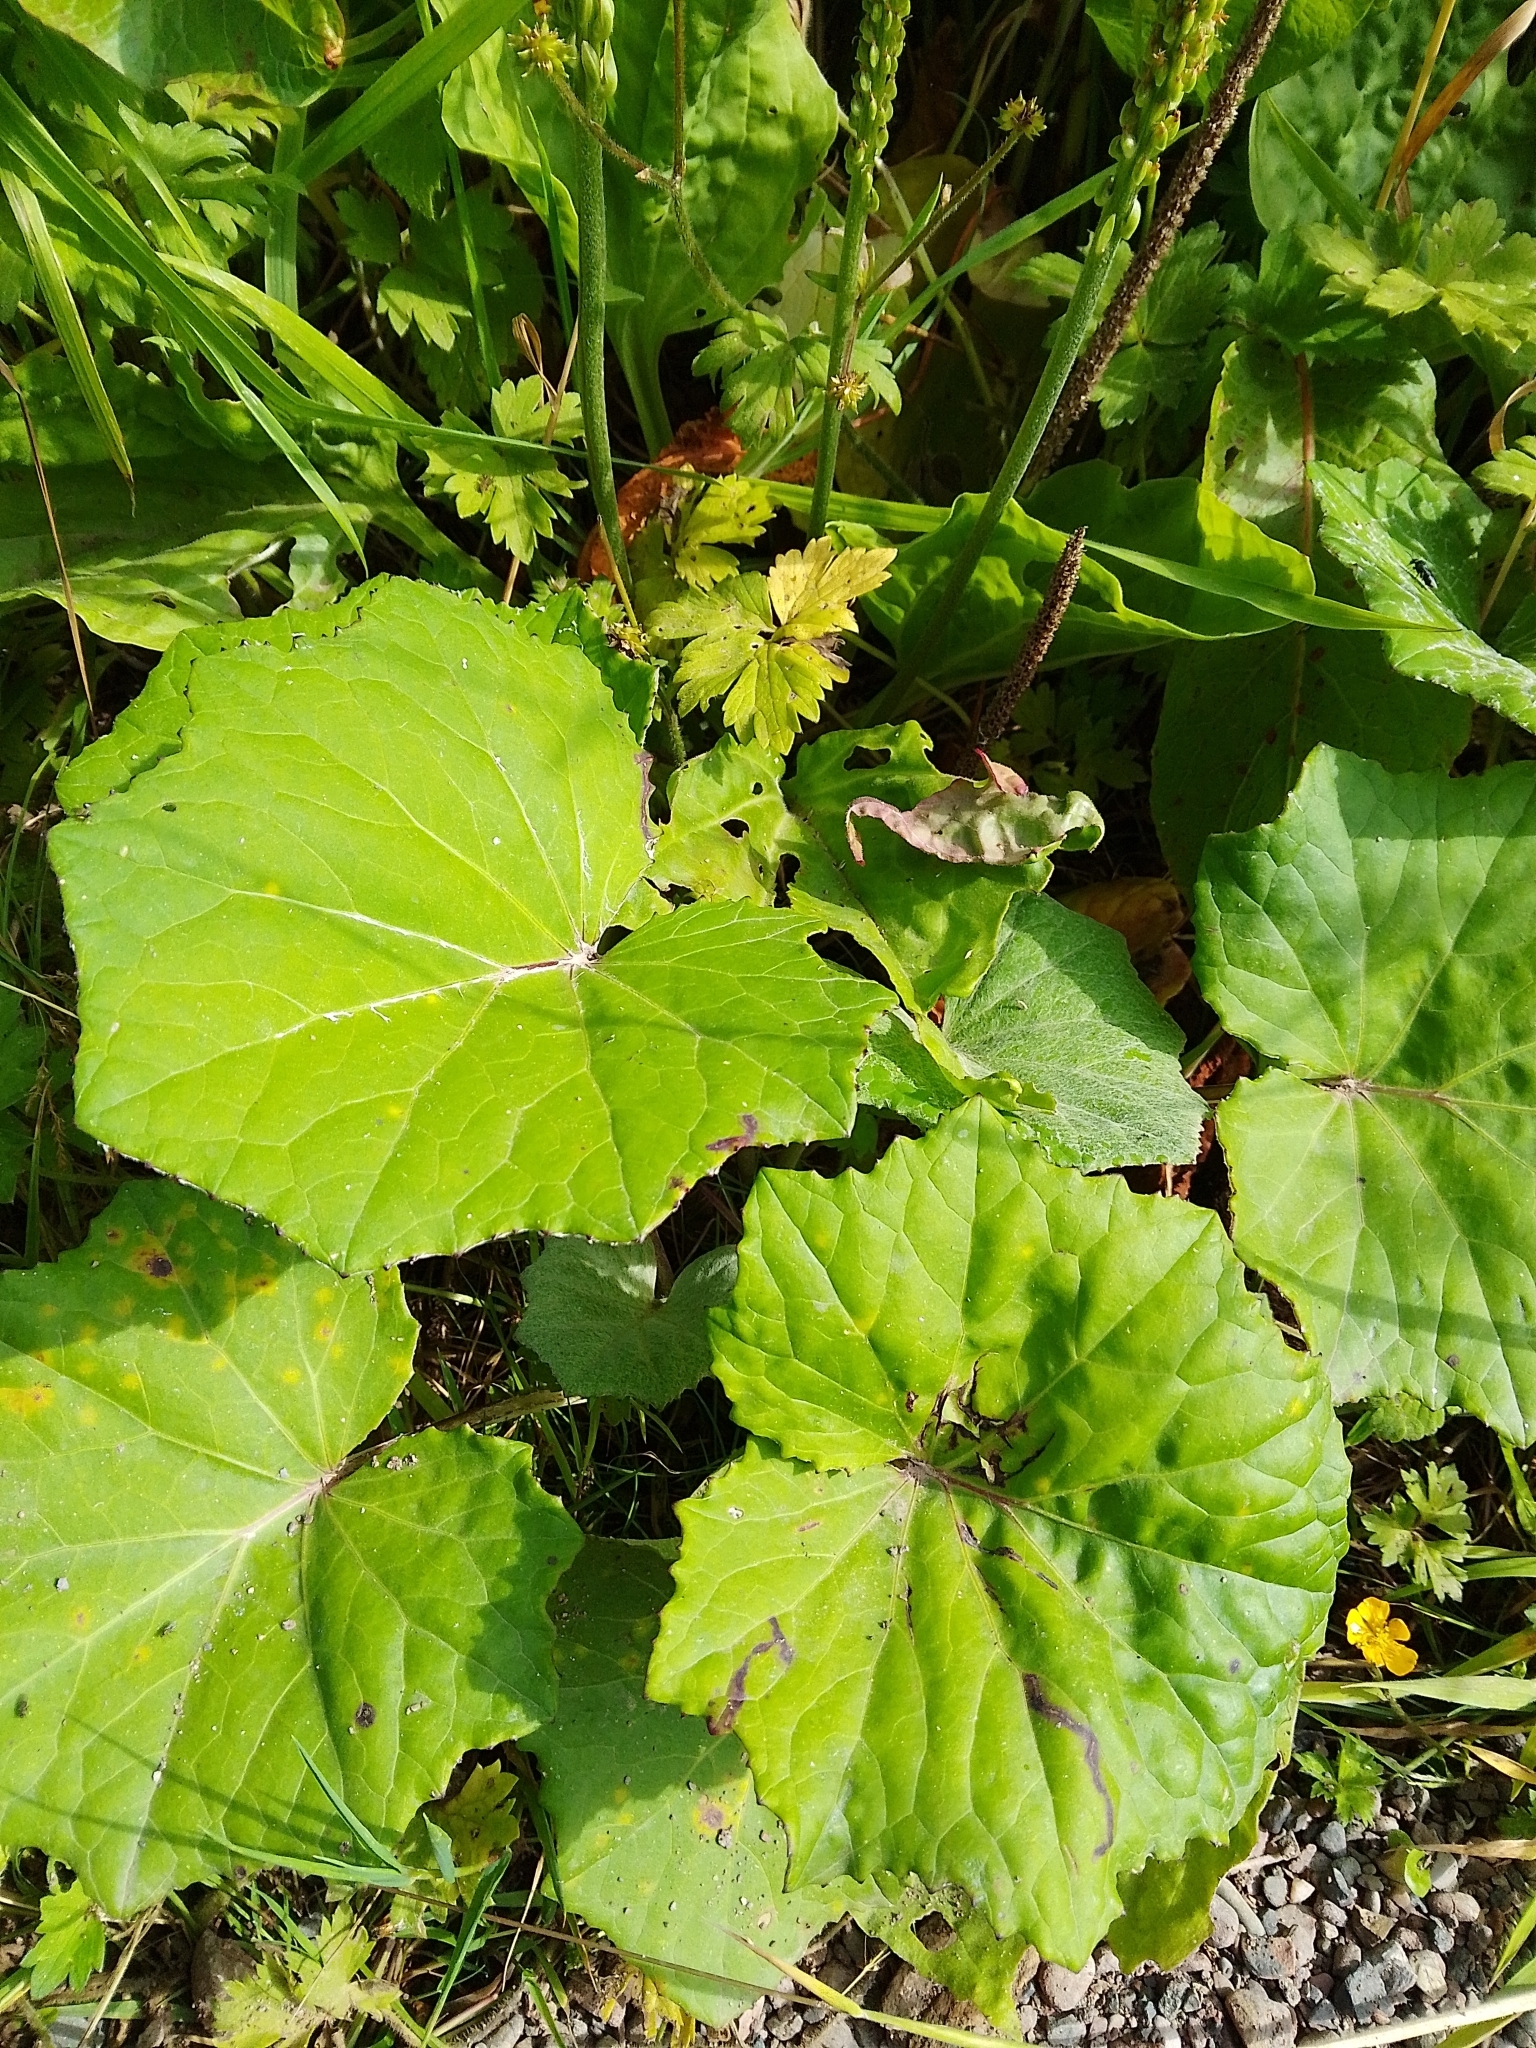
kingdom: Plantae
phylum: Tracheophyta
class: Magnoliopsida
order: Asterales
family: Asteraceae
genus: Tussilago
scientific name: Tussilago farfara
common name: Coltsfoot
